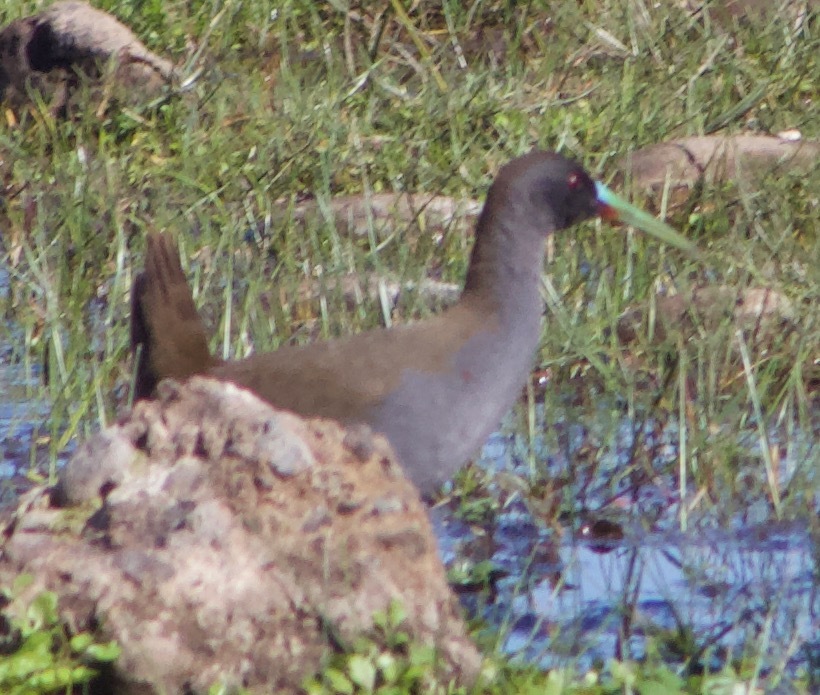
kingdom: Animalia
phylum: Chordata
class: Aves
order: Gruiformes
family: Rallidae
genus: Pardirallus
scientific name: Pardirallus sanguinolentus
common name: Plumbeous rail
